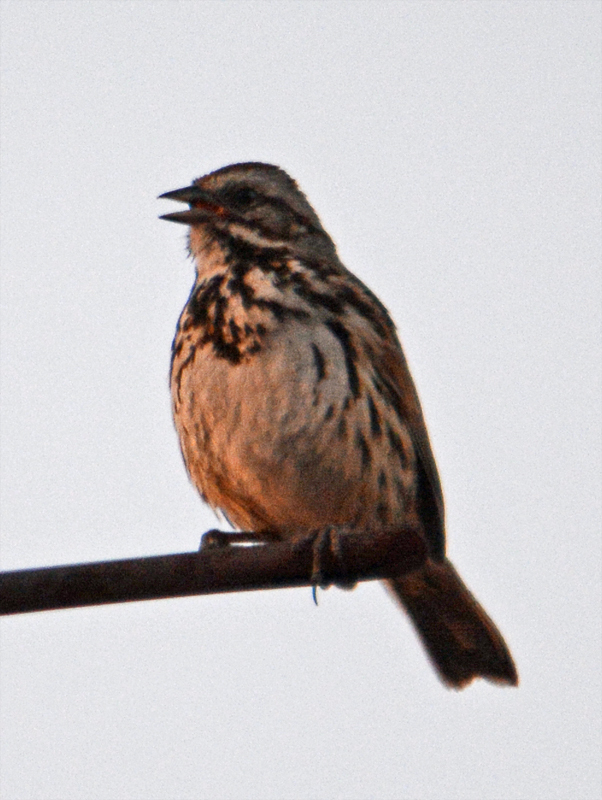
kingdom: Animalia
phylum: Chordata
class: Aves
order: Passeriformes
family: Passerellidae
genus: Melospiza
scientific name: Melospiza melodia
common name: Song sparrow
